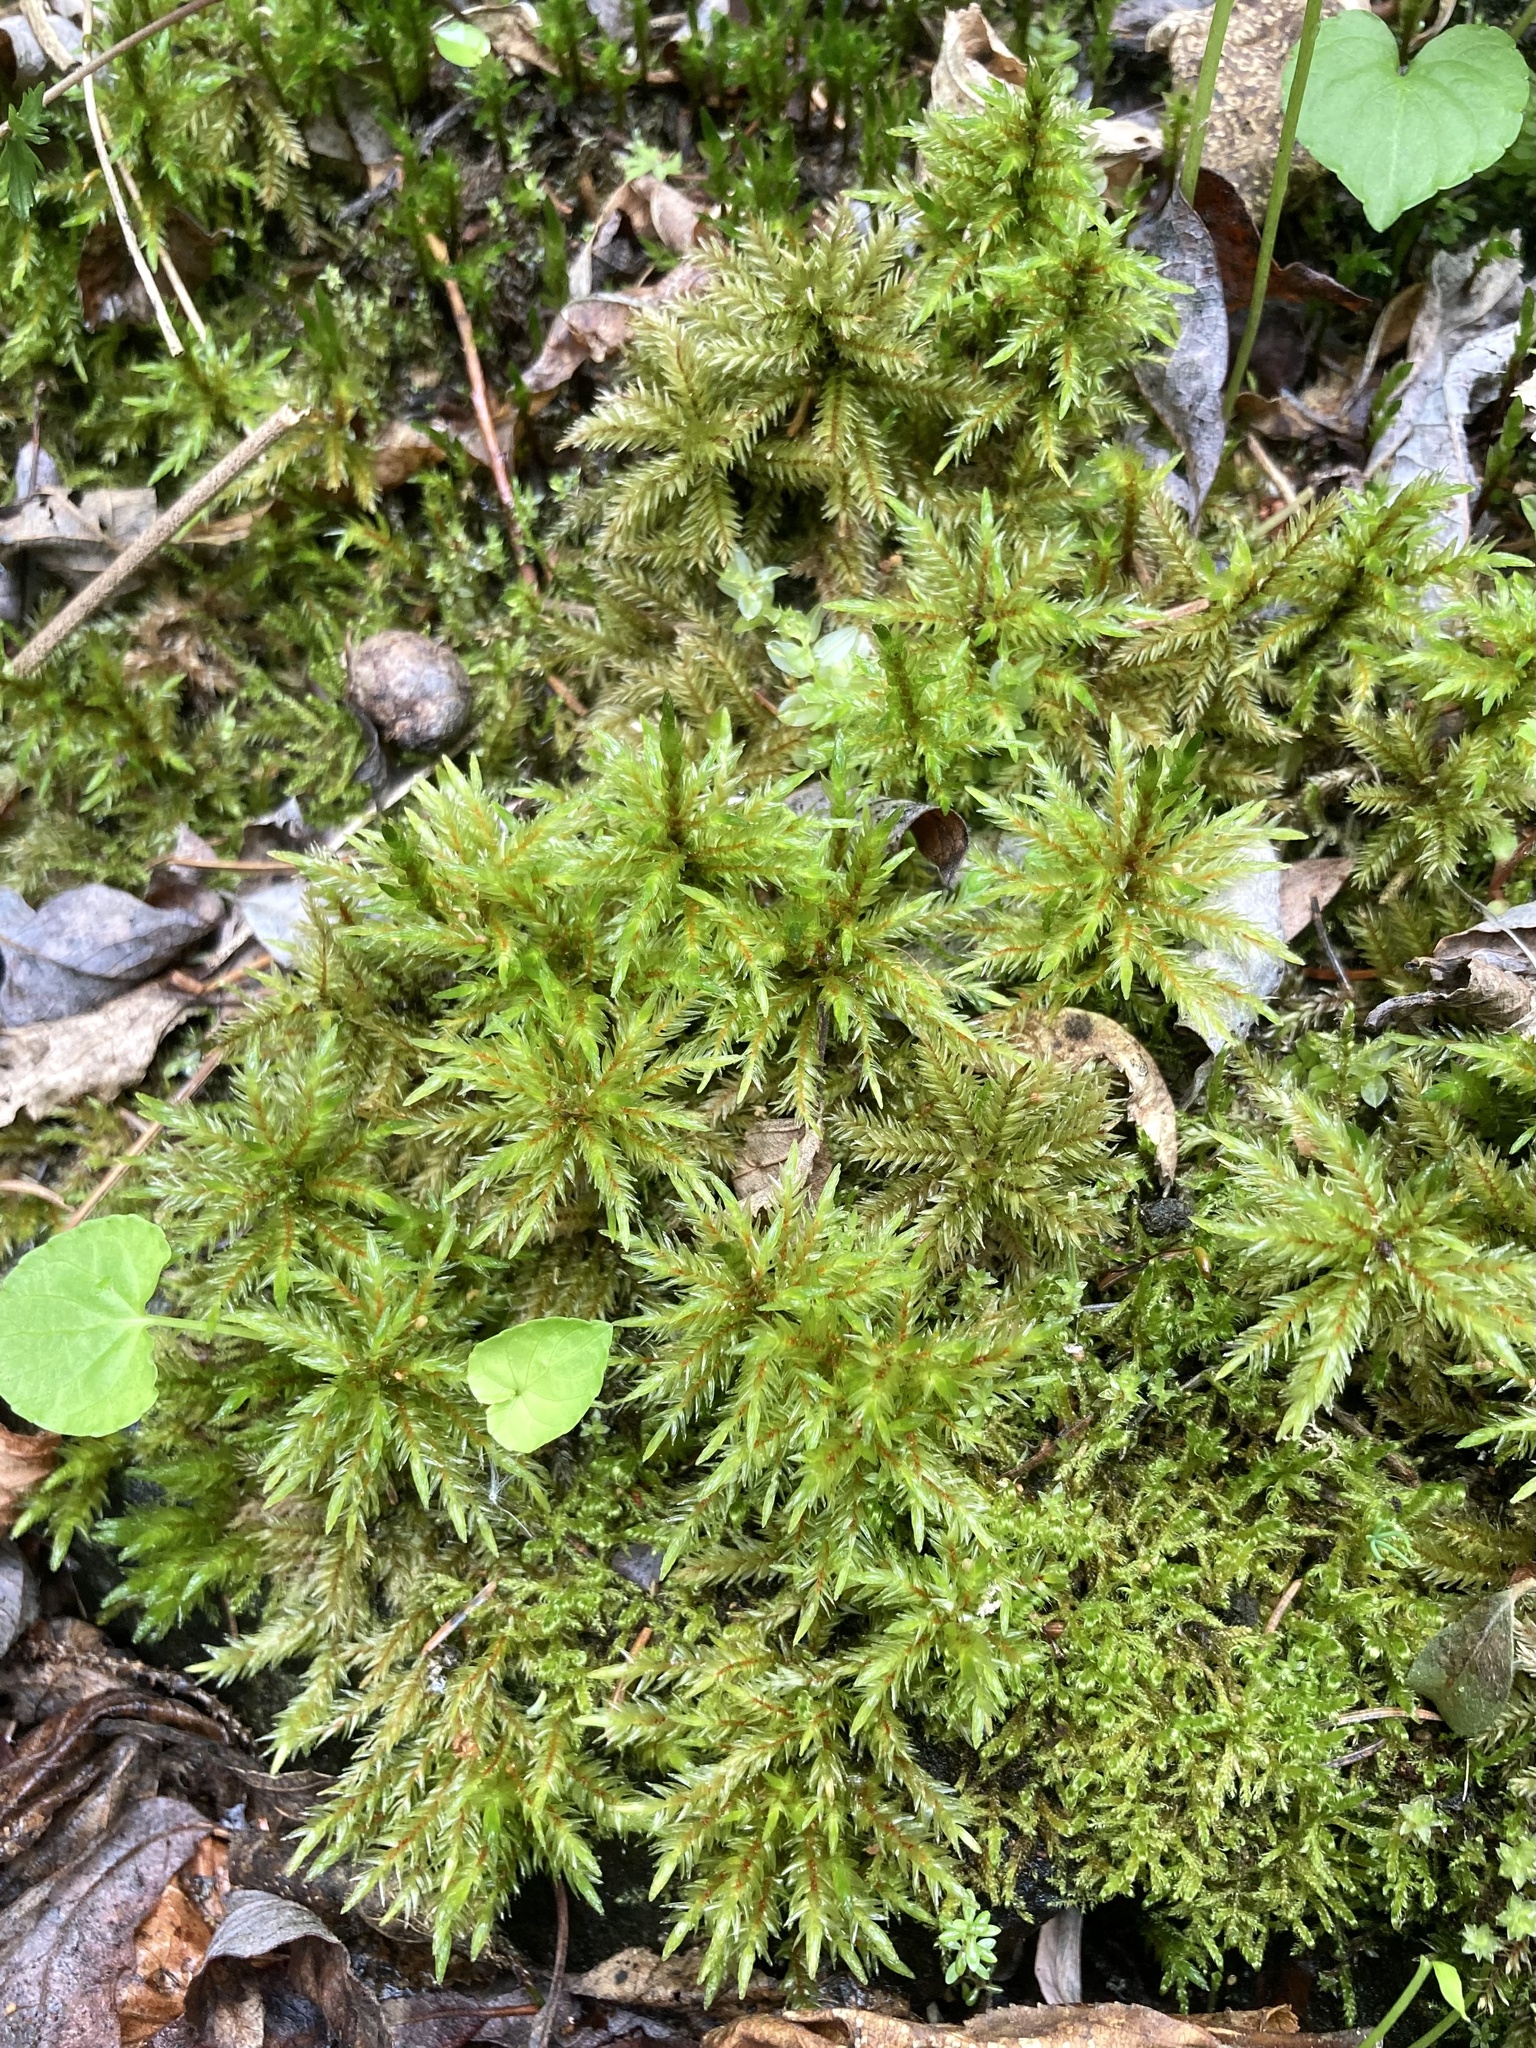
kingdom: Plantae
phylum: Bryophyta
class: Bryopsida
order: Hypnales
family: Climaciaceae
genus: Climacium
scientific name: Climacium dendroides
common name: Northern tree moss
